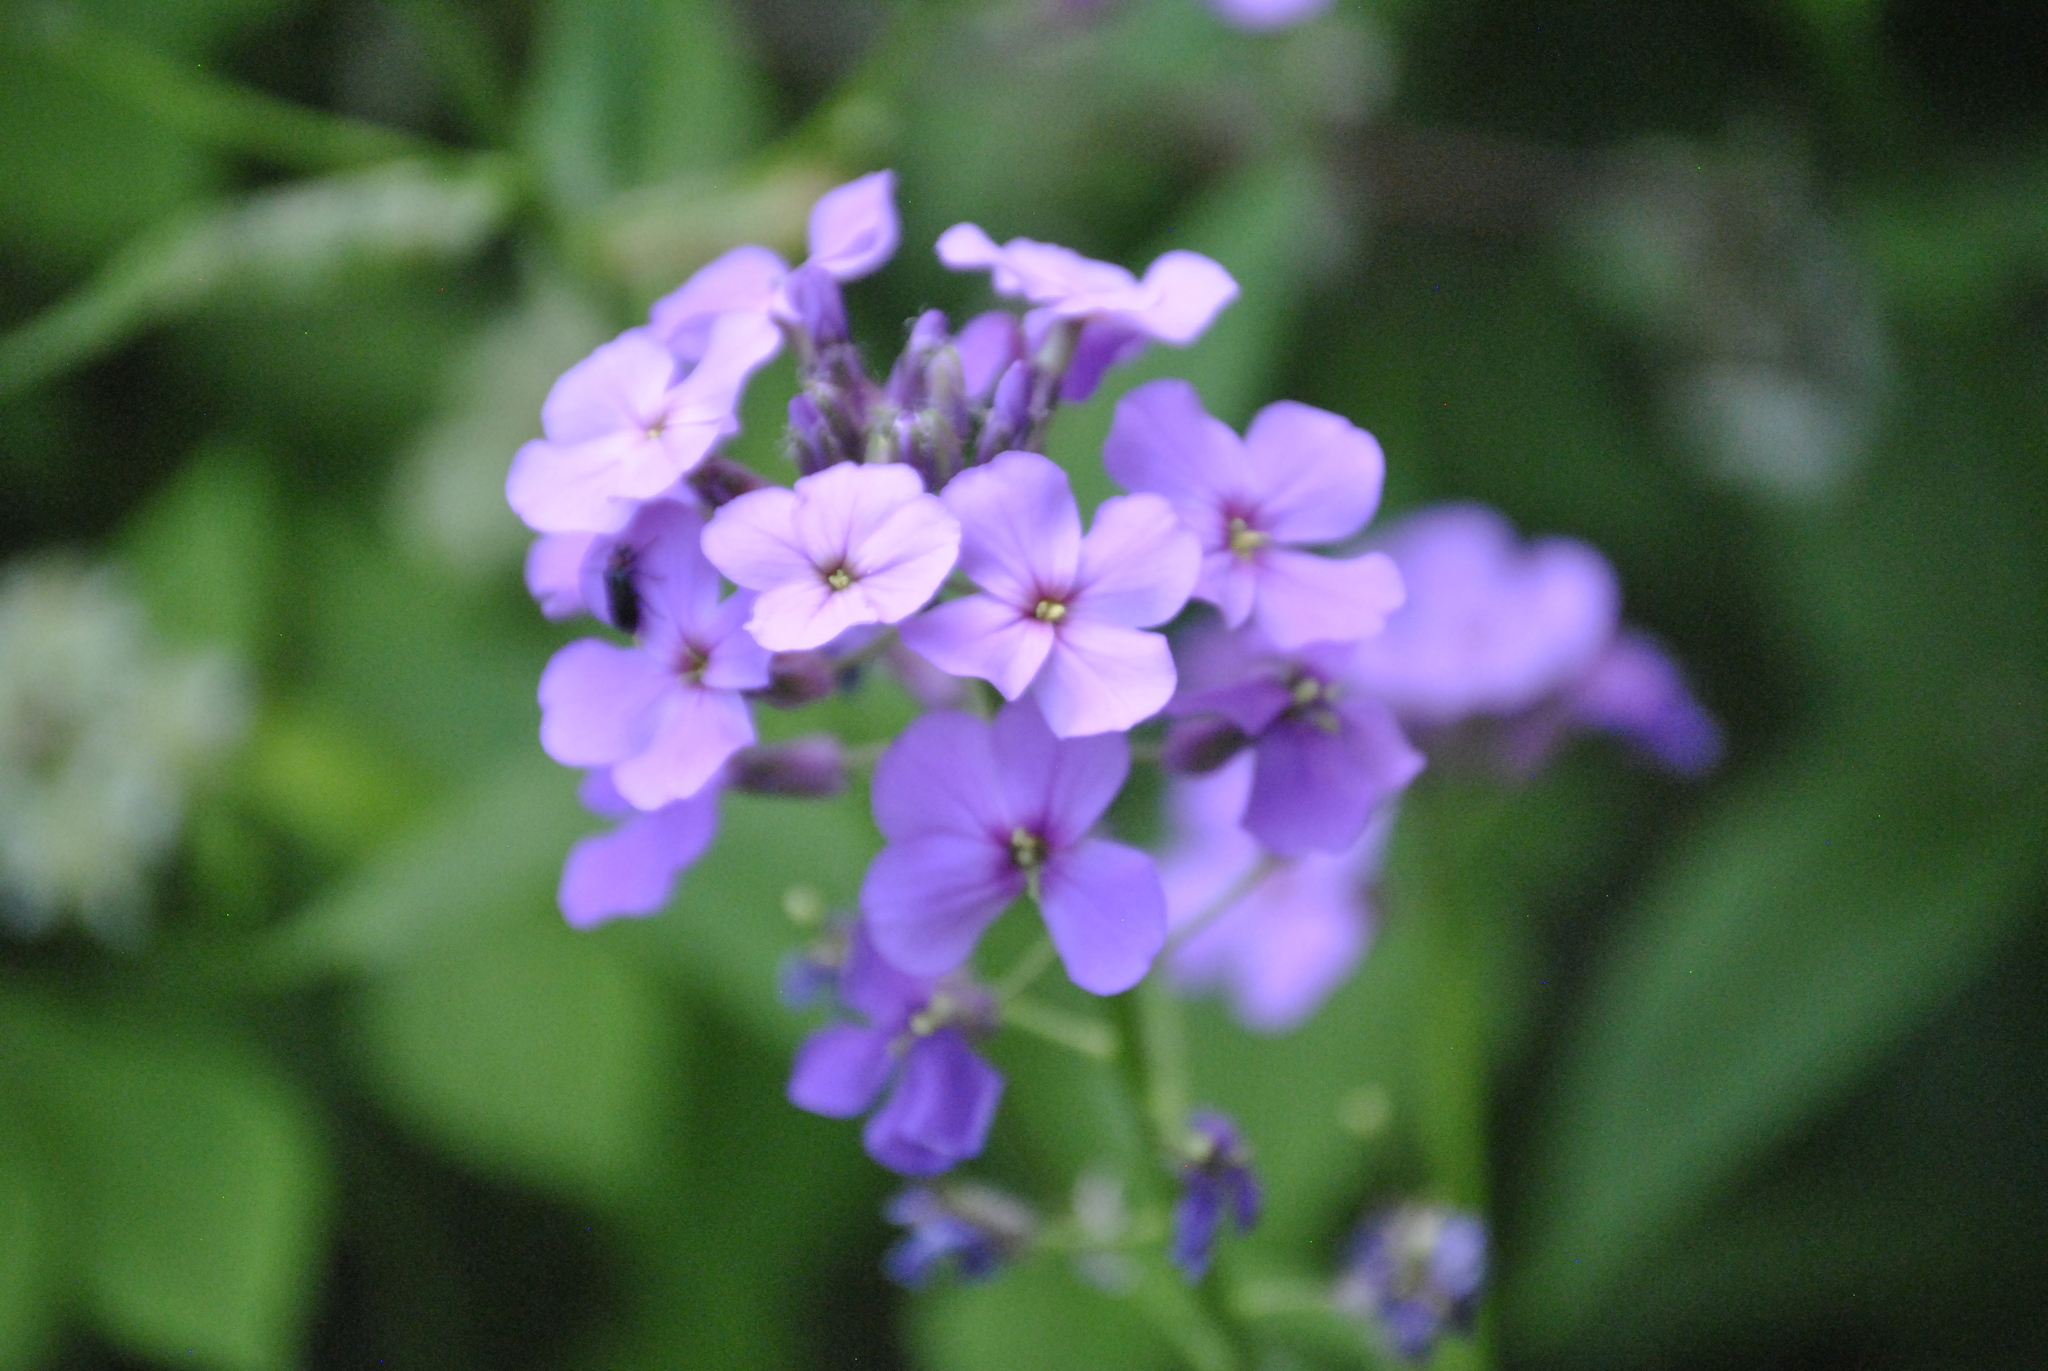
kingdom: Plantae
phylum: Tracheophyta
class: Magnoliopsida
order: Brassicales
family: Brassicaceae
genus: Hesperis
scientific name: Hesperis matronalis
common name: Dame's-violet
